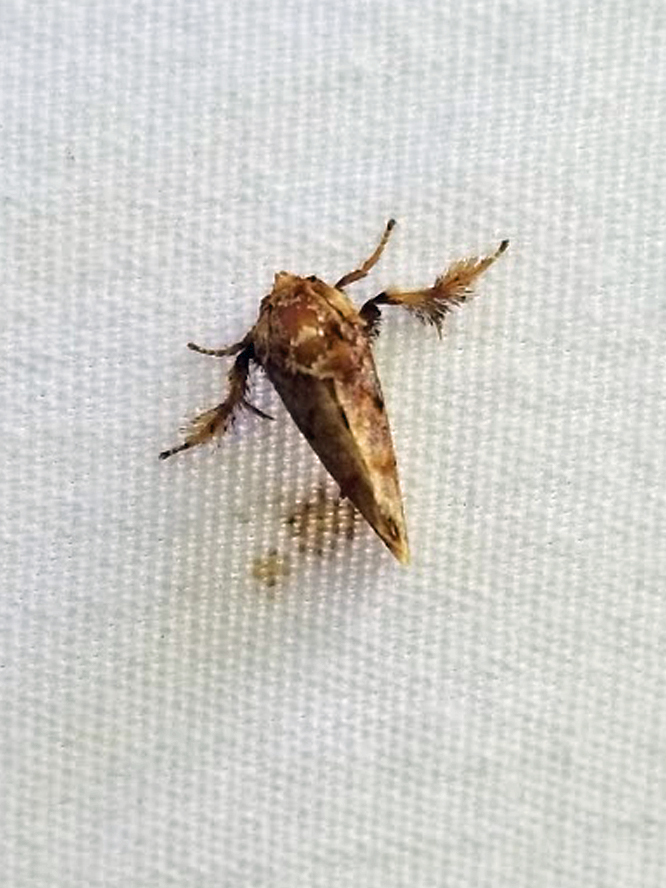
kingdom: Animalia
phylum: Arthropoda
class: Insecta
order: Lepidoptera
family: Limacodidae
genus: Isochaetes
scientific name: Isochaetes beutenmuelleri
